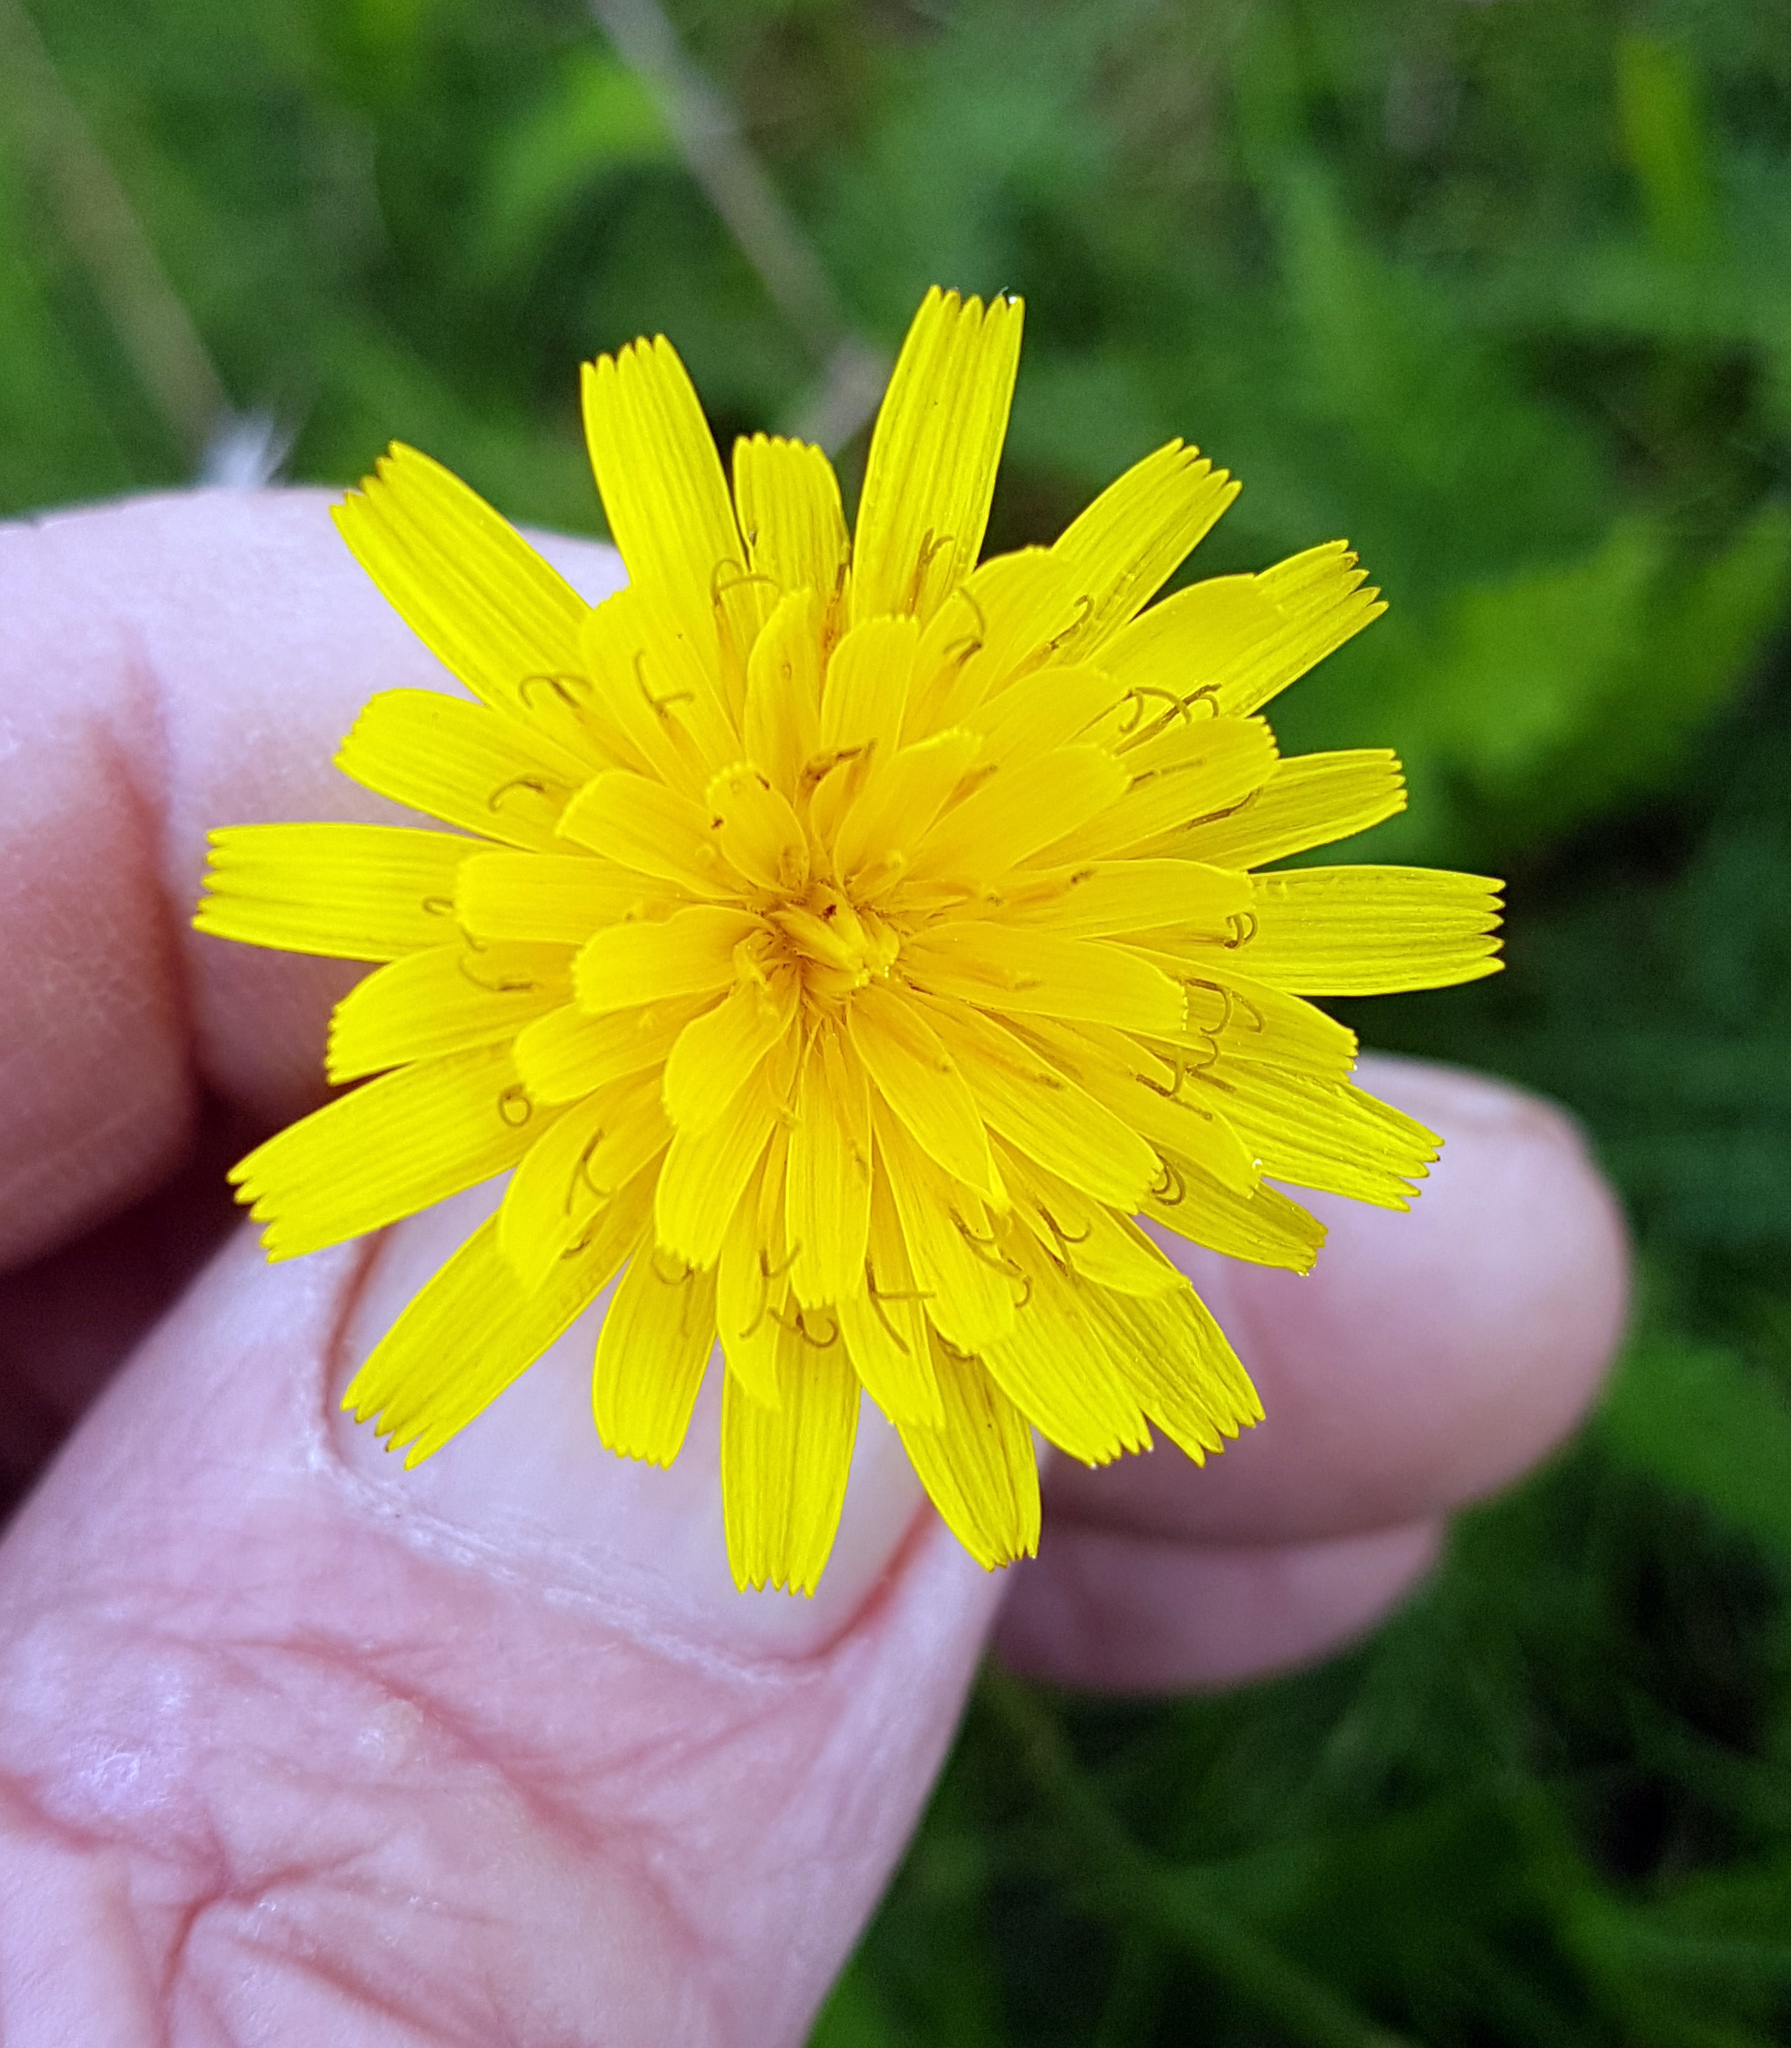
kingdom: Plantae
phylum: Tracheophyta
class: Magnoliopsida
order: Asterales
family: Asteraceae
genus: Scorzoneroides
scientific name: Scorzoneroides autumnalis
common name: Autumn hawkbit
